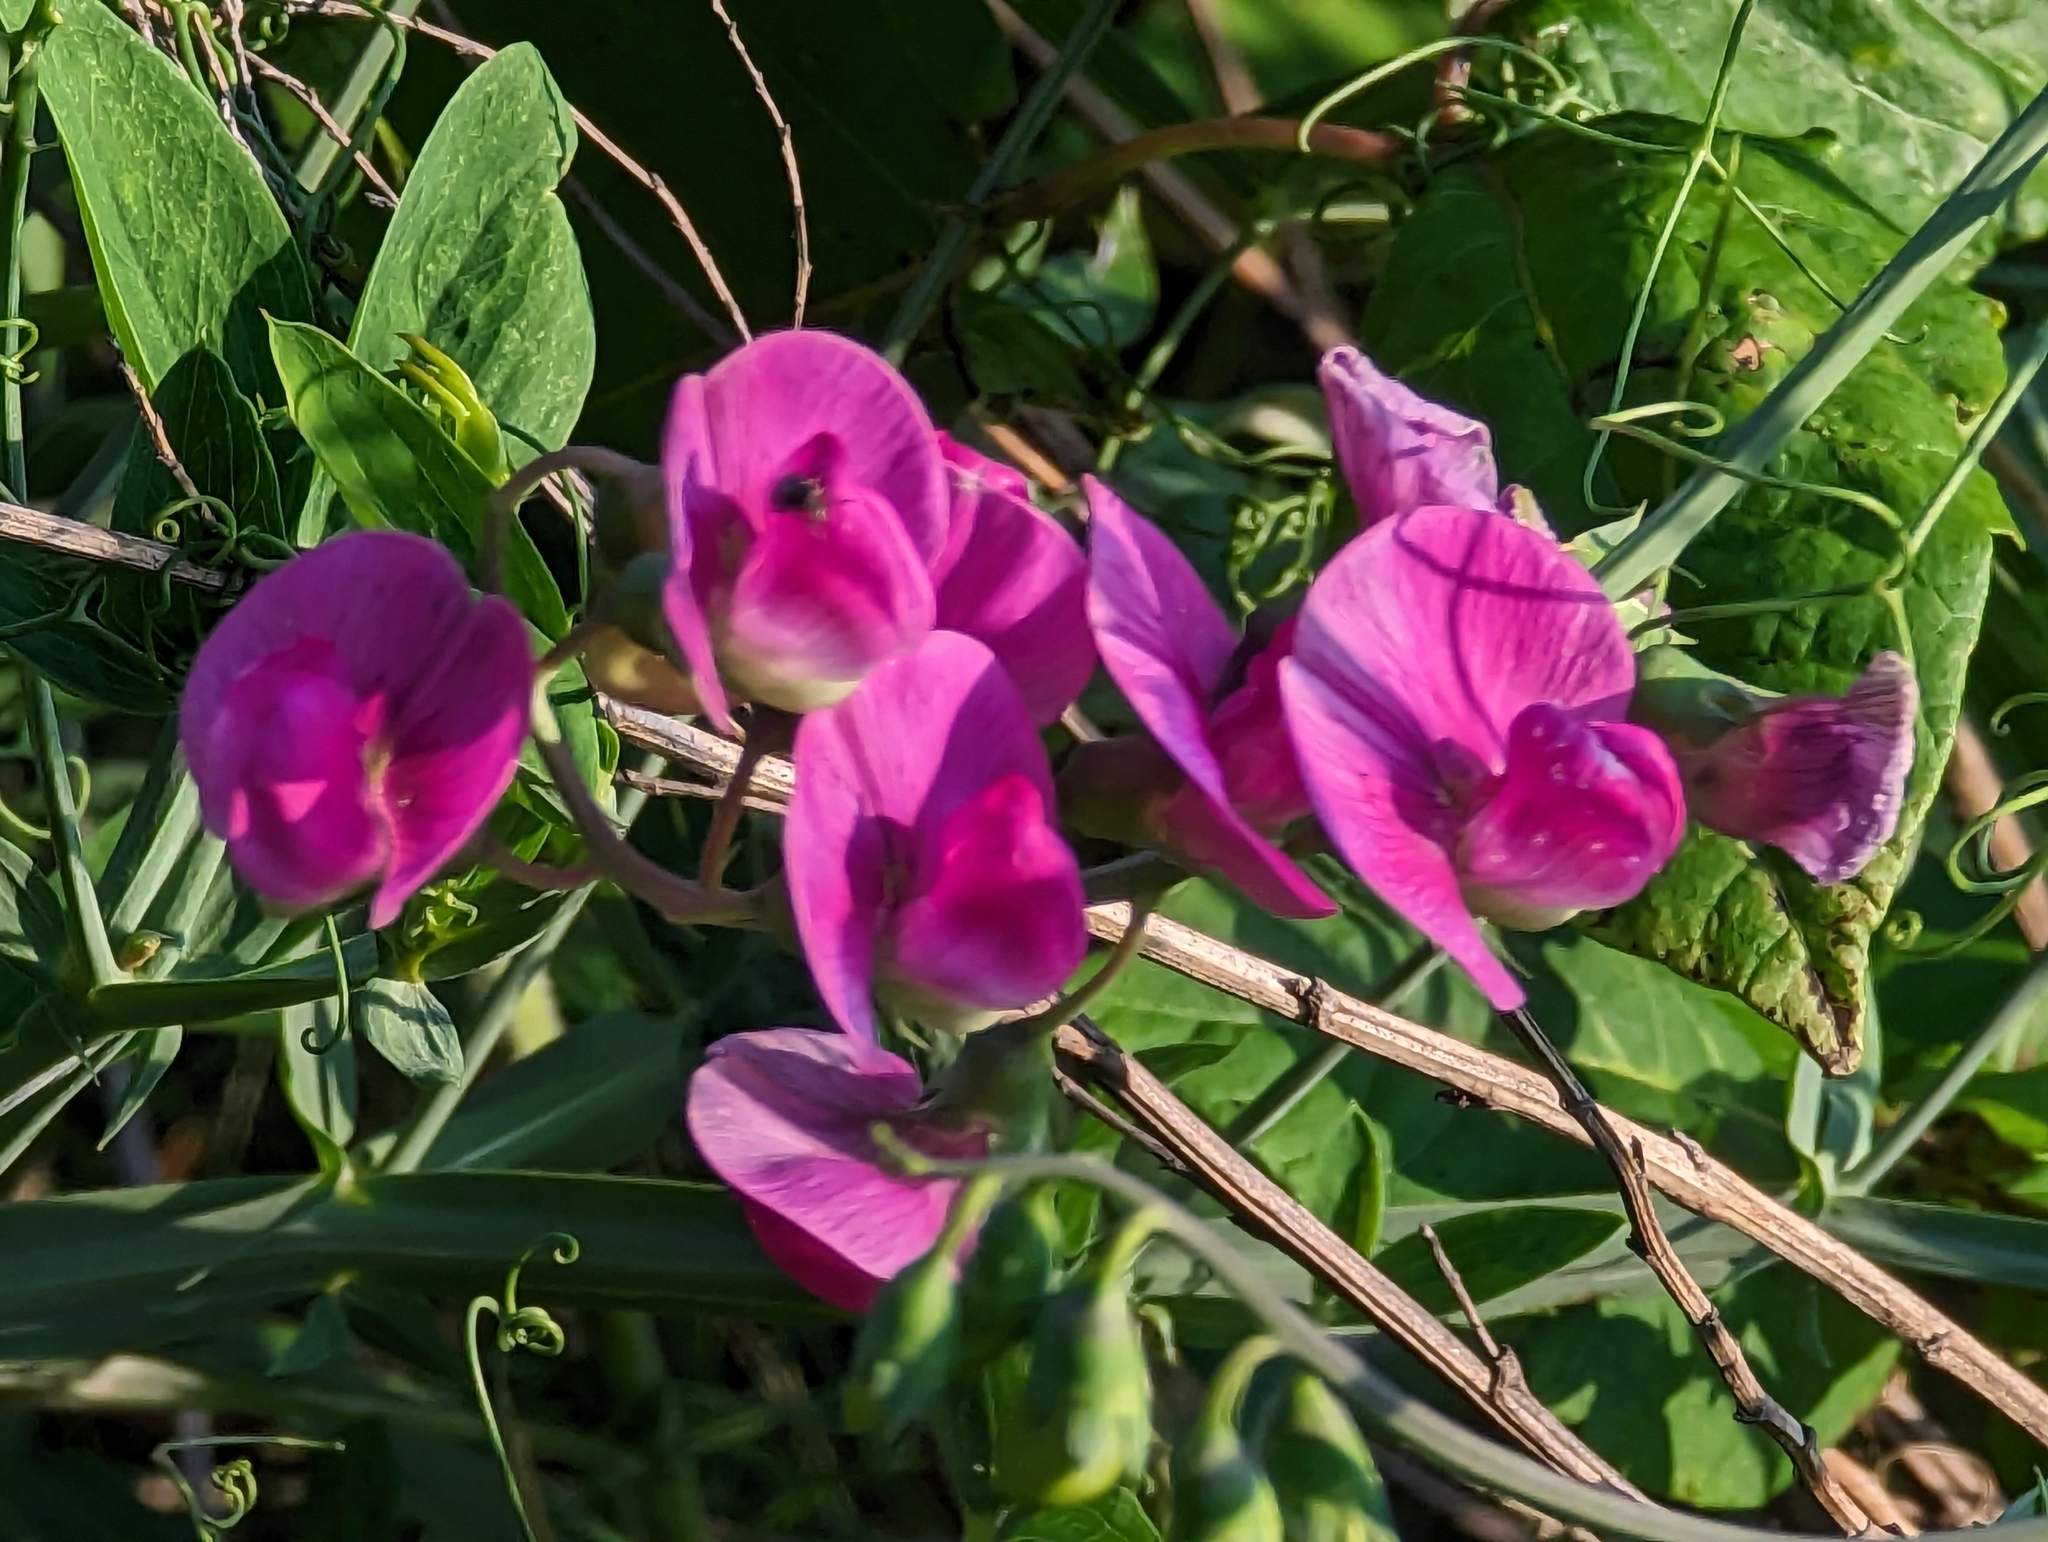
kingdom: Plantae
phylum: Tracheophyta
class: Magnoliopsida
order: Fabales
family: Fabaceae
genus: Lathyrus
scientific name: Lathyrus latifolius
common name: Perennial pea
